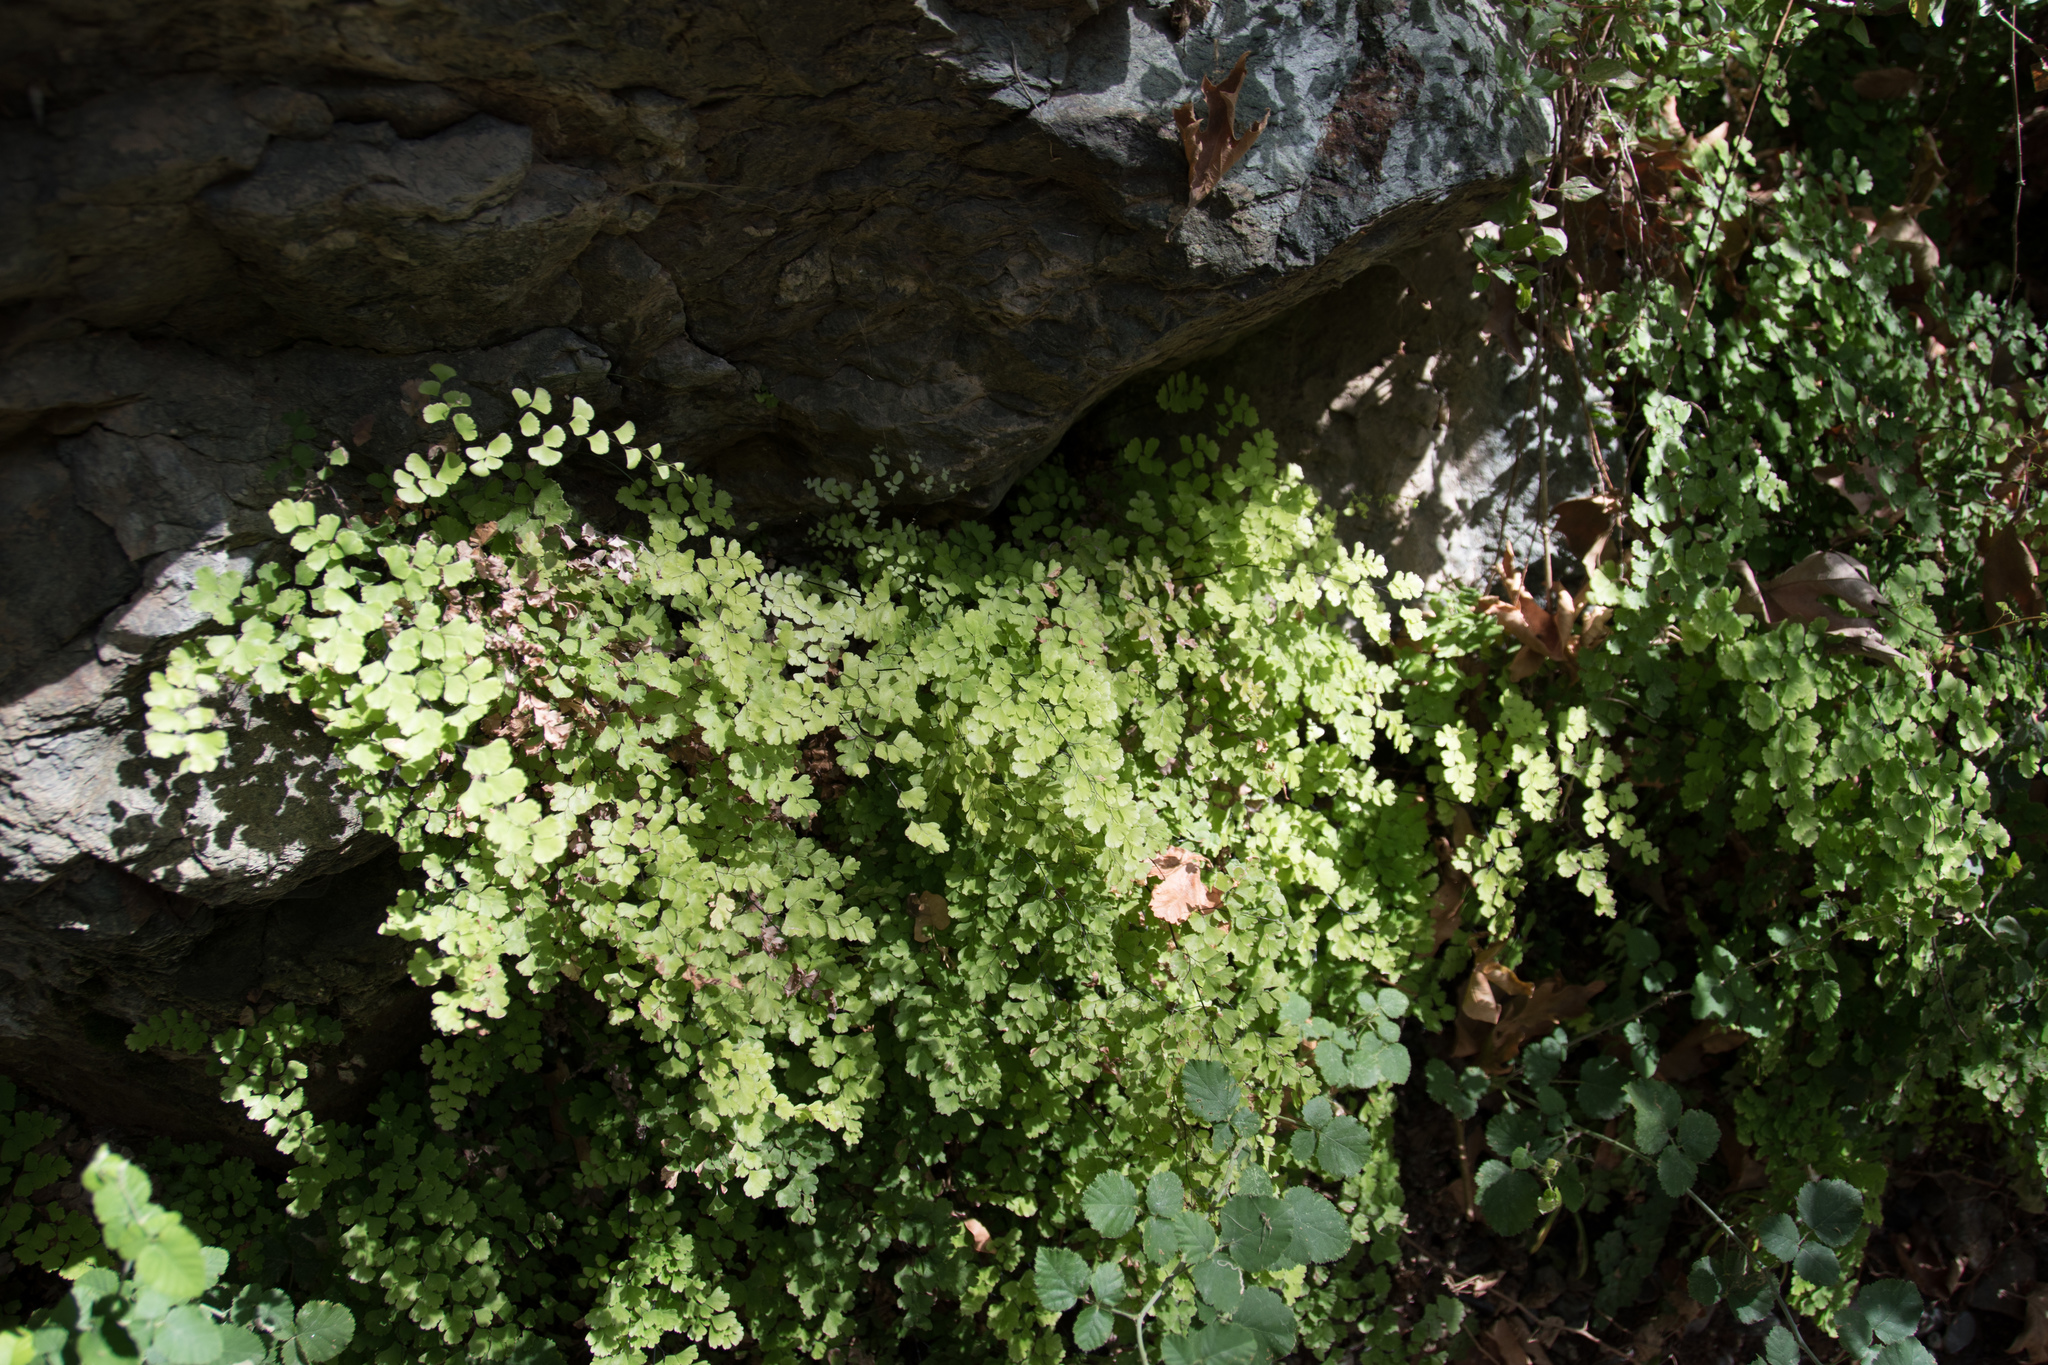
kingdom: Plantae
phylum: Tracheophyta
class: Polypodiopsida
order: Polypodiales
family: Pteridaceae
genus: Adiantum
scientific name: Adiantum capillus-veneris
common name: Maidenhair fern
